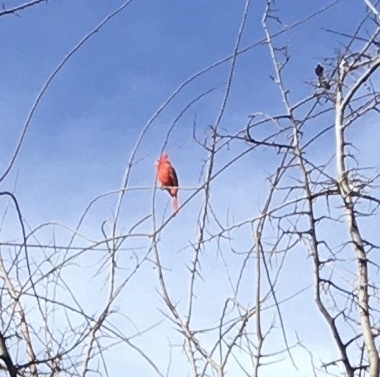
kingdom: Animalia
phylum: Chordata
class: Aves
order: Passeriformes
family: Cardinalidae
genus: Cardinalis
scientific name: Cardinalis cardinalis
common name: Northern cardinal
